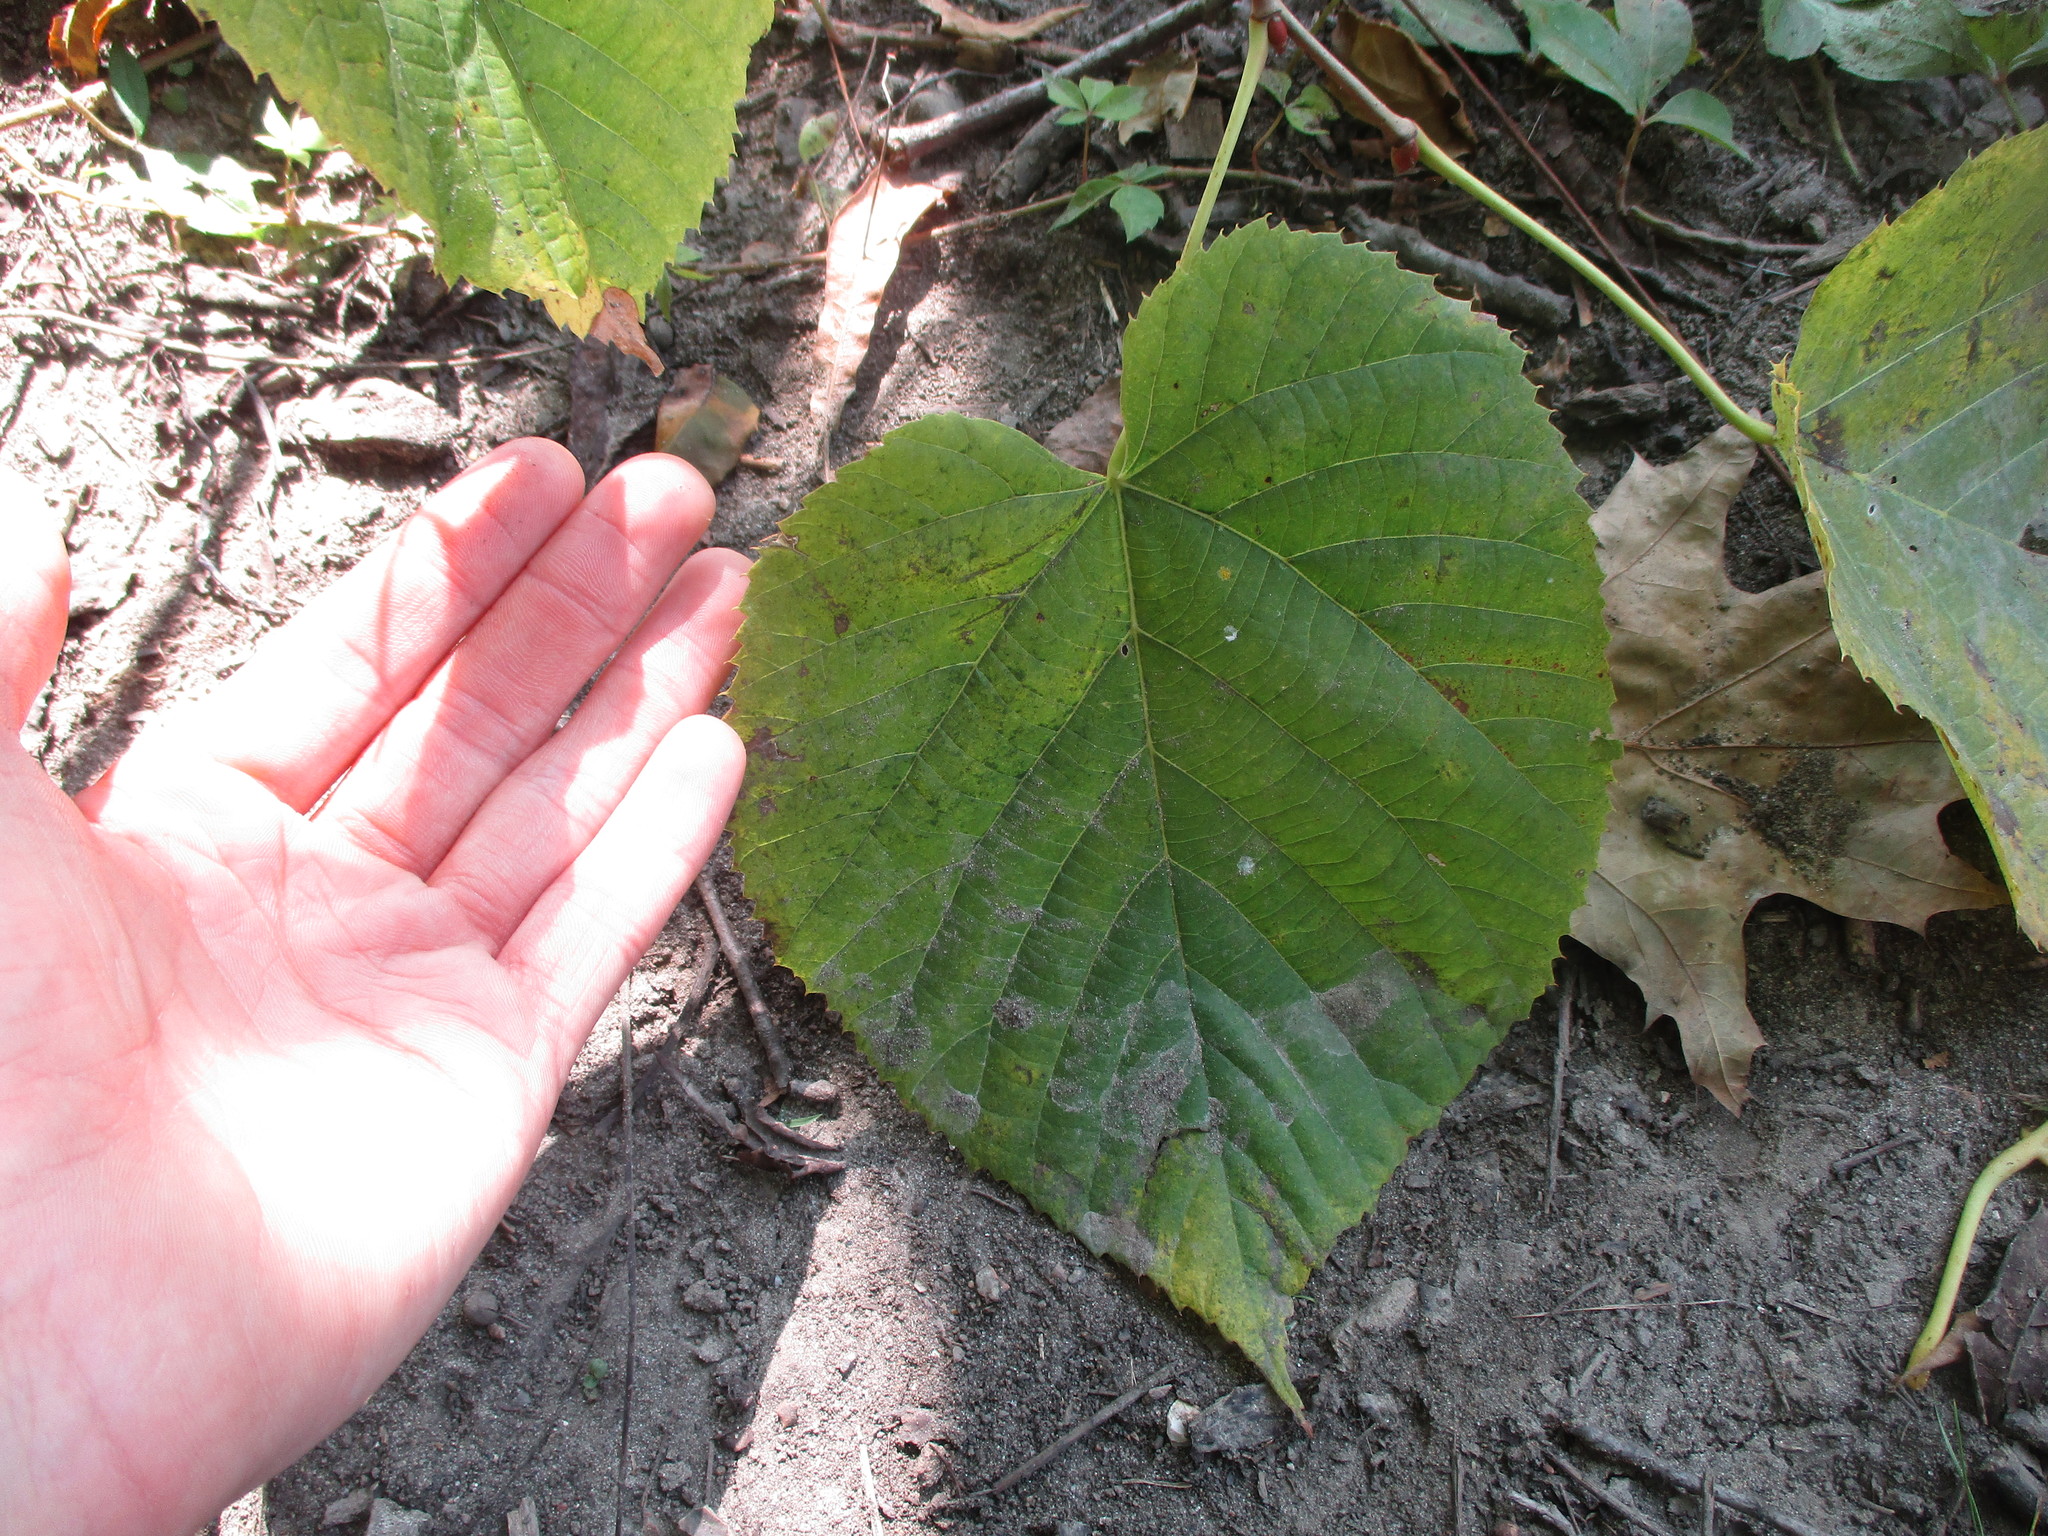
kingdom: Plantae
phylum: Tracheophyta
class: Magnoliopsida
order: Malvales
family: Malvaceae
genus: Tilia
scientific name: Tilia americana
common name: Basswood
